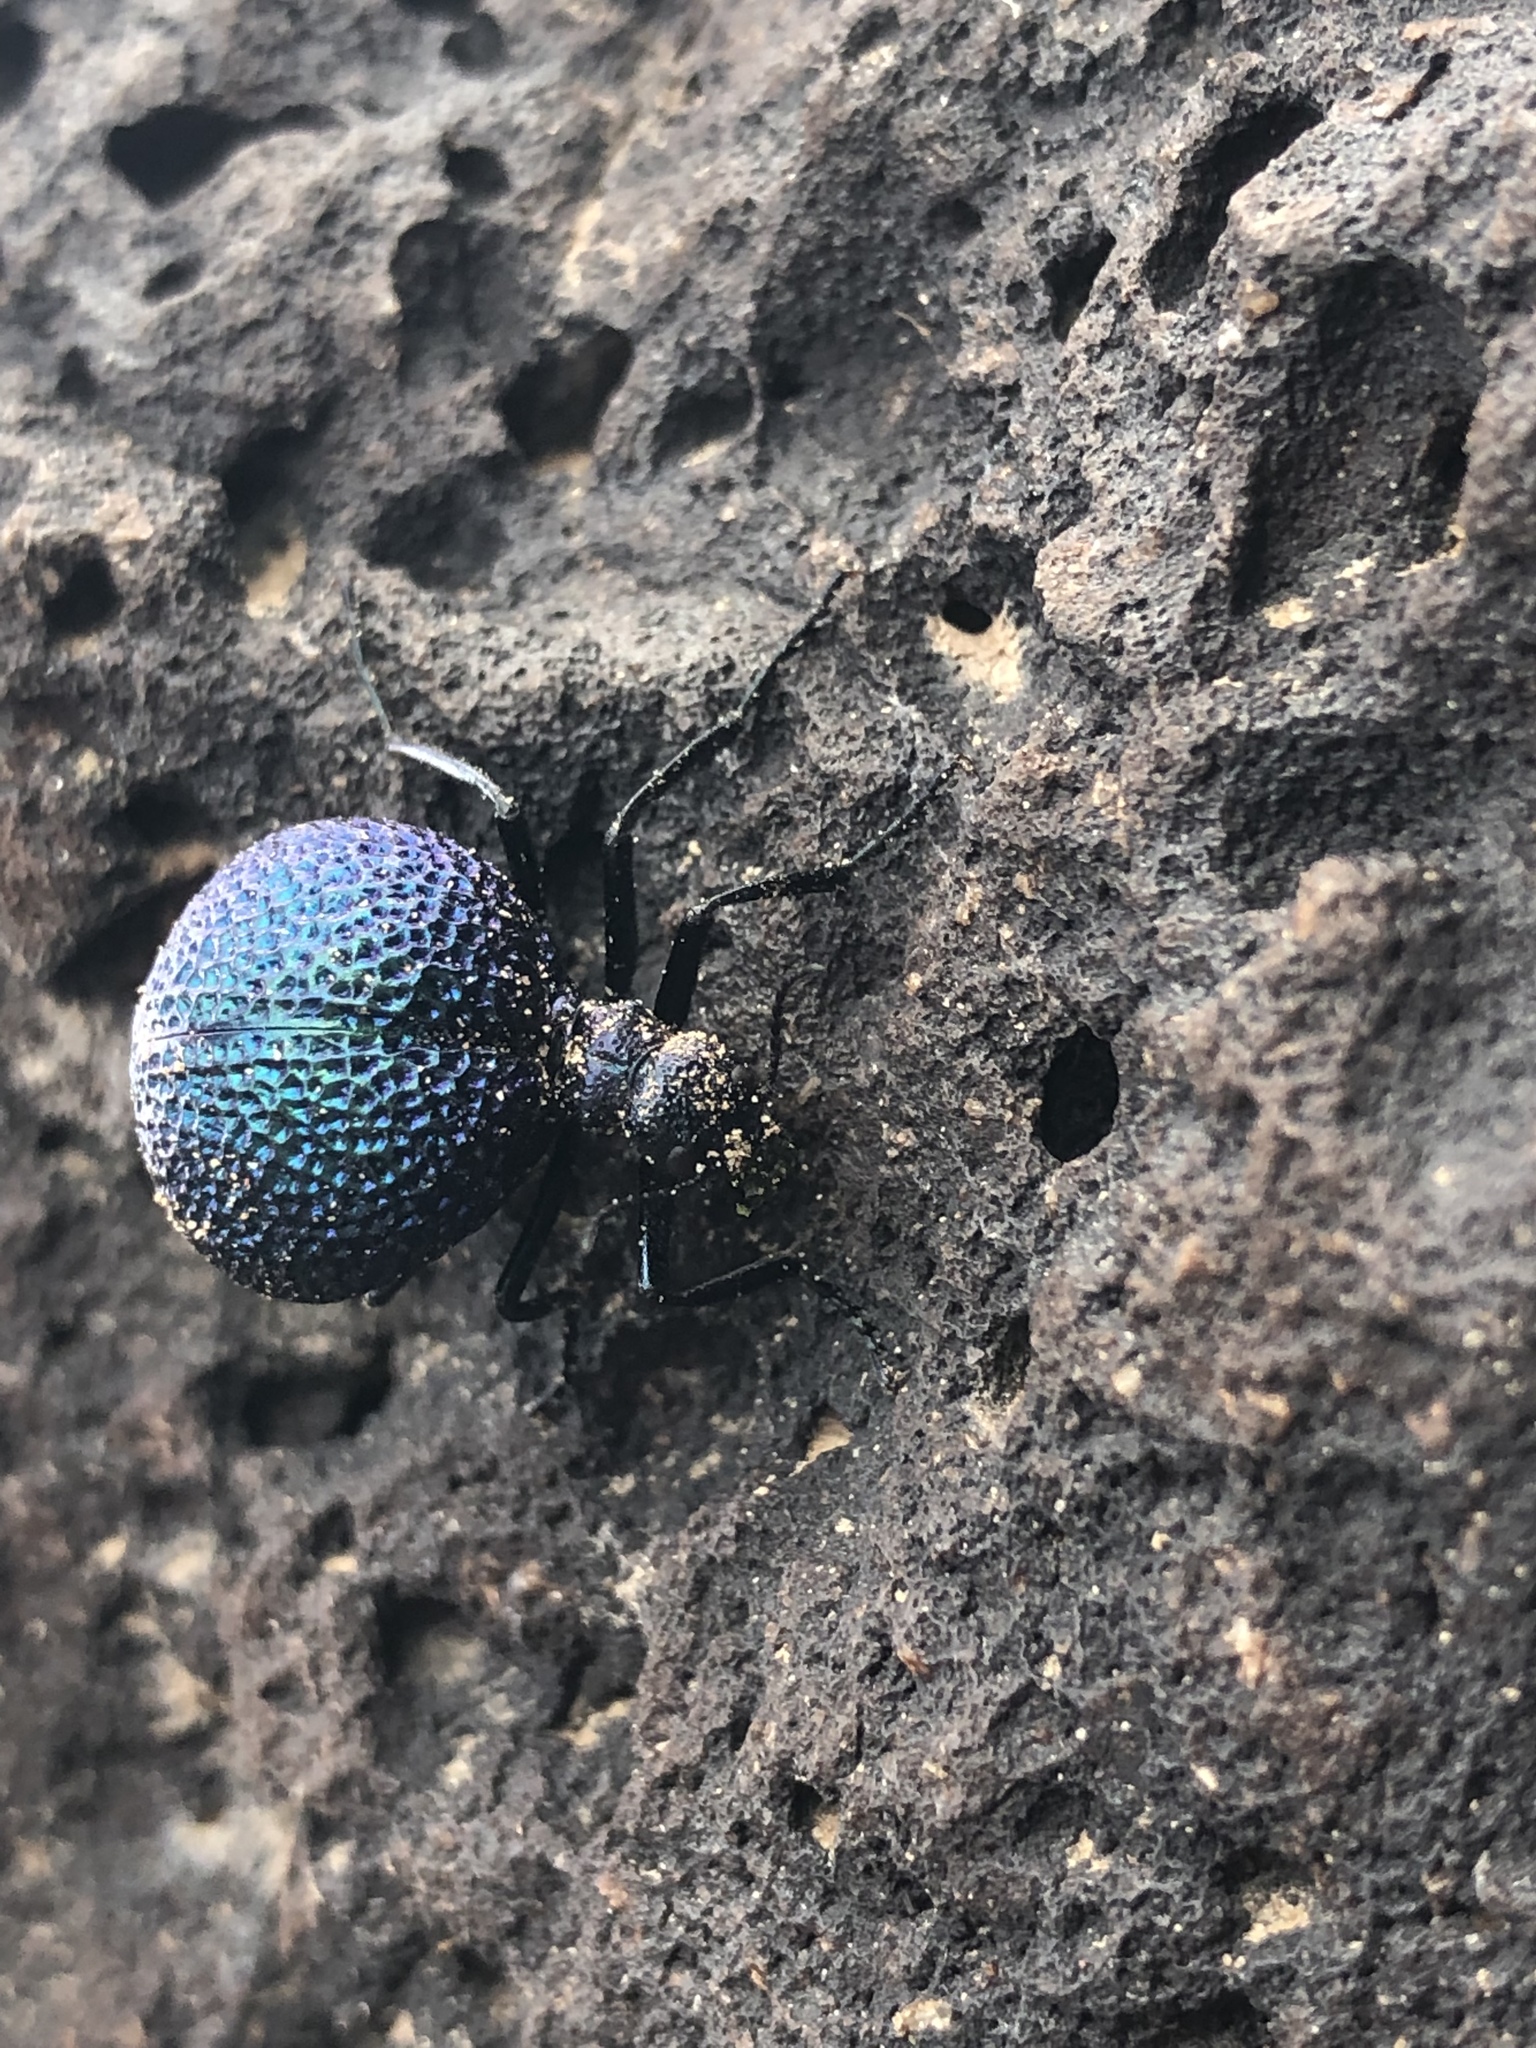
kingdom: Animalia
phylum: Arthropoda
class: Insecta
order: Coleoptera
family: Meloidae
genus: Cysteodemus
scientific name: Cysteodemus wislizeni
